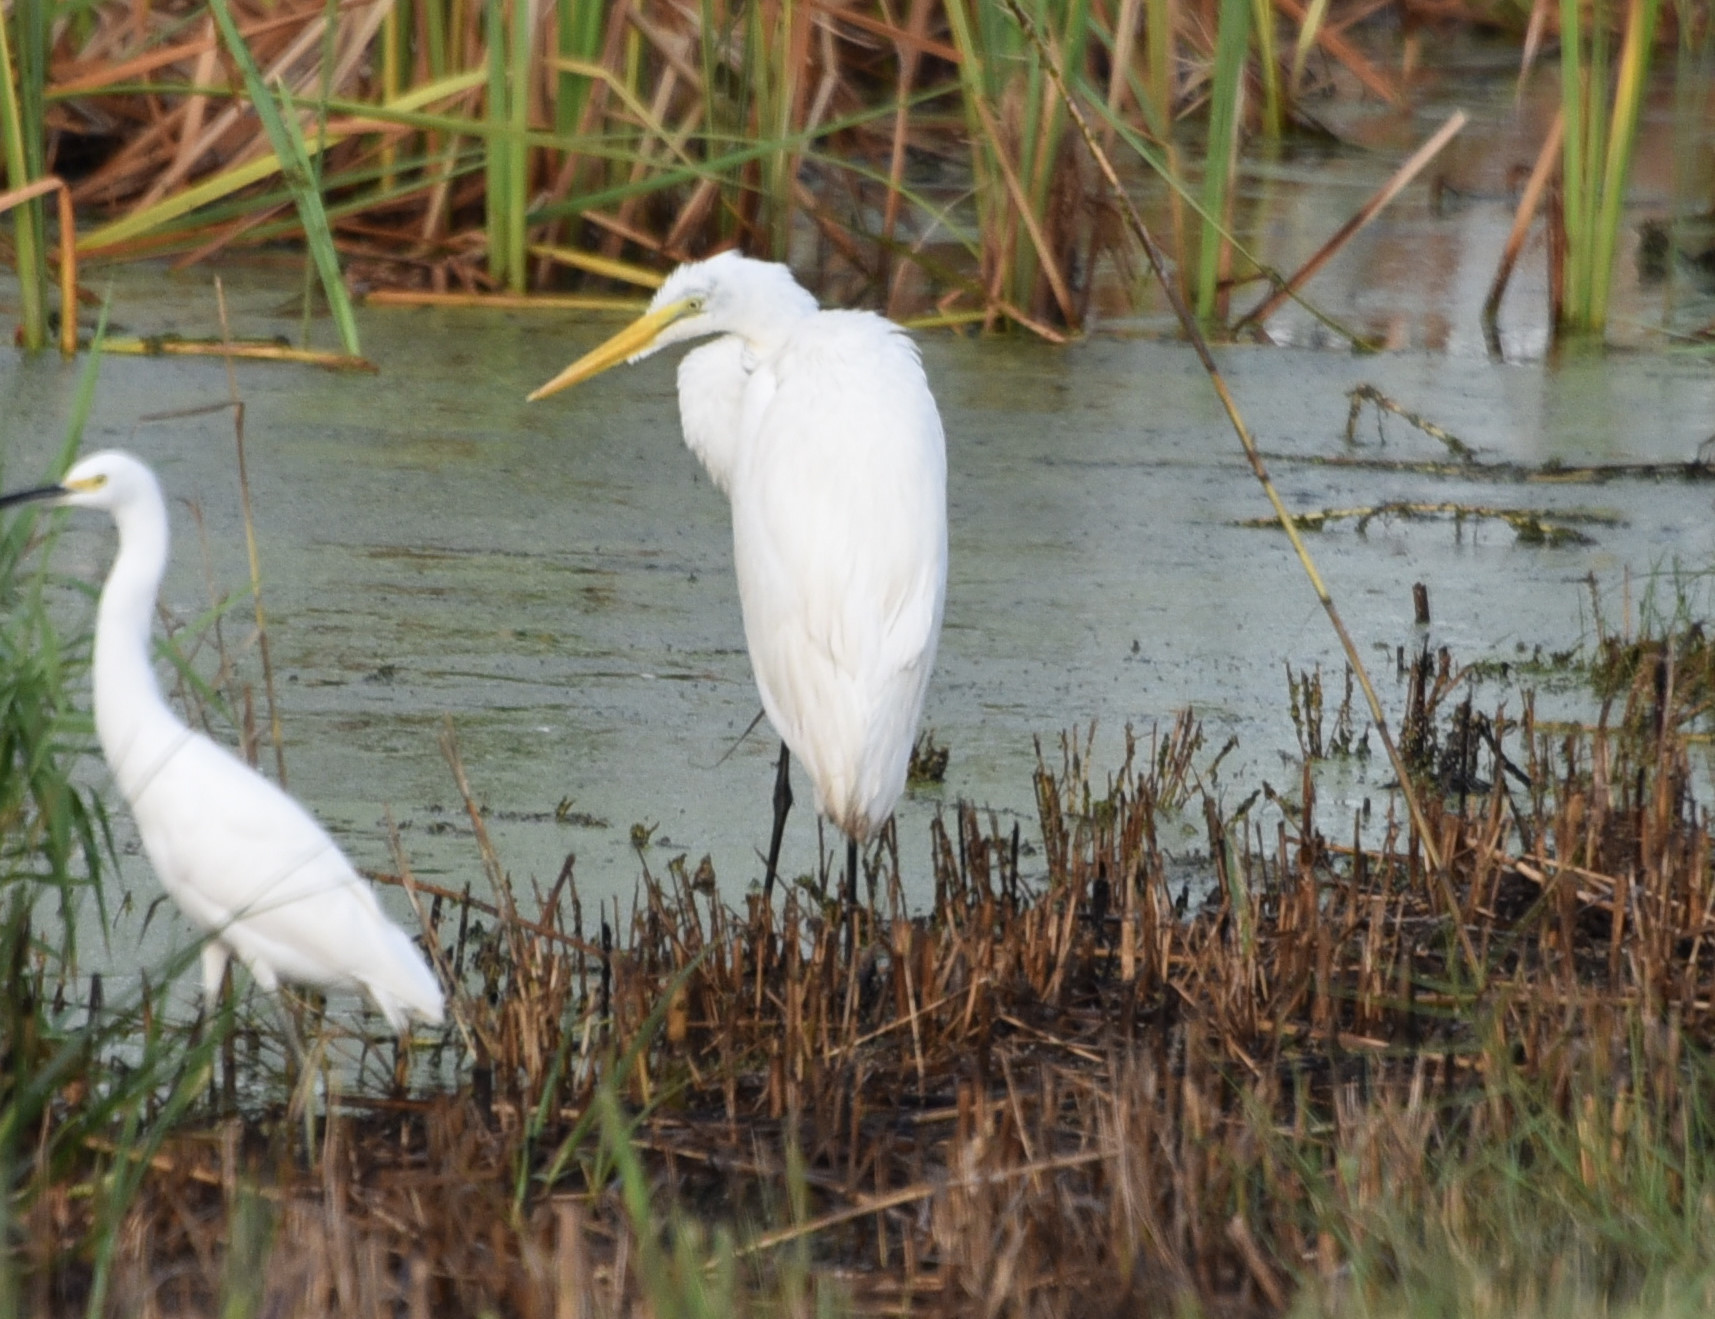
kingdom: Animalia
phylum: Chordata
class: Aves
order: Pelecaniformes
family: Ardeidae
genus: Ardea
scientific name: Ardea alba
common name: Great egret
